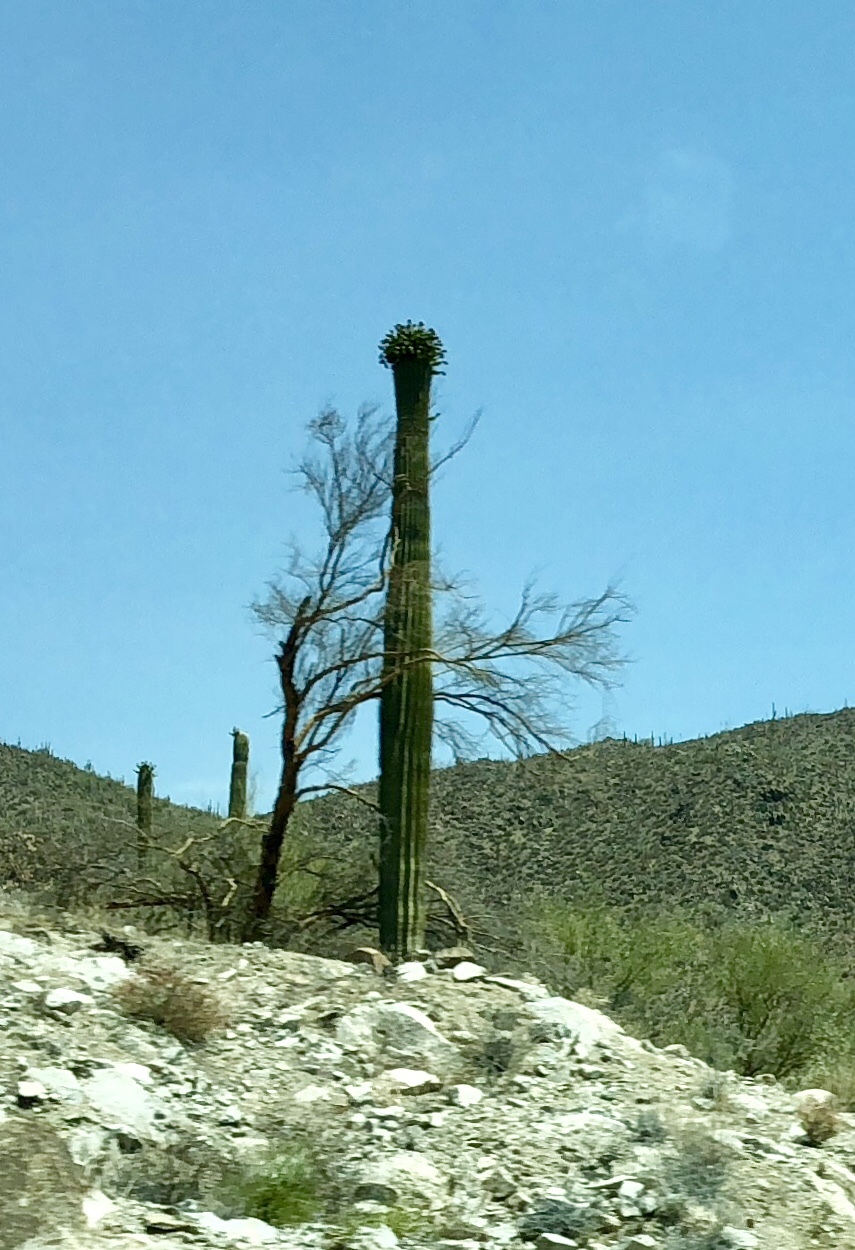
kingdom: Plantae
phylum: Tracheophyta
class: Magnoliopsida
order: Caryophyllales
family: Cactaceae
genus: Carnegiea
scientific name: Carnegiea gigantea
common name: Saguaro
